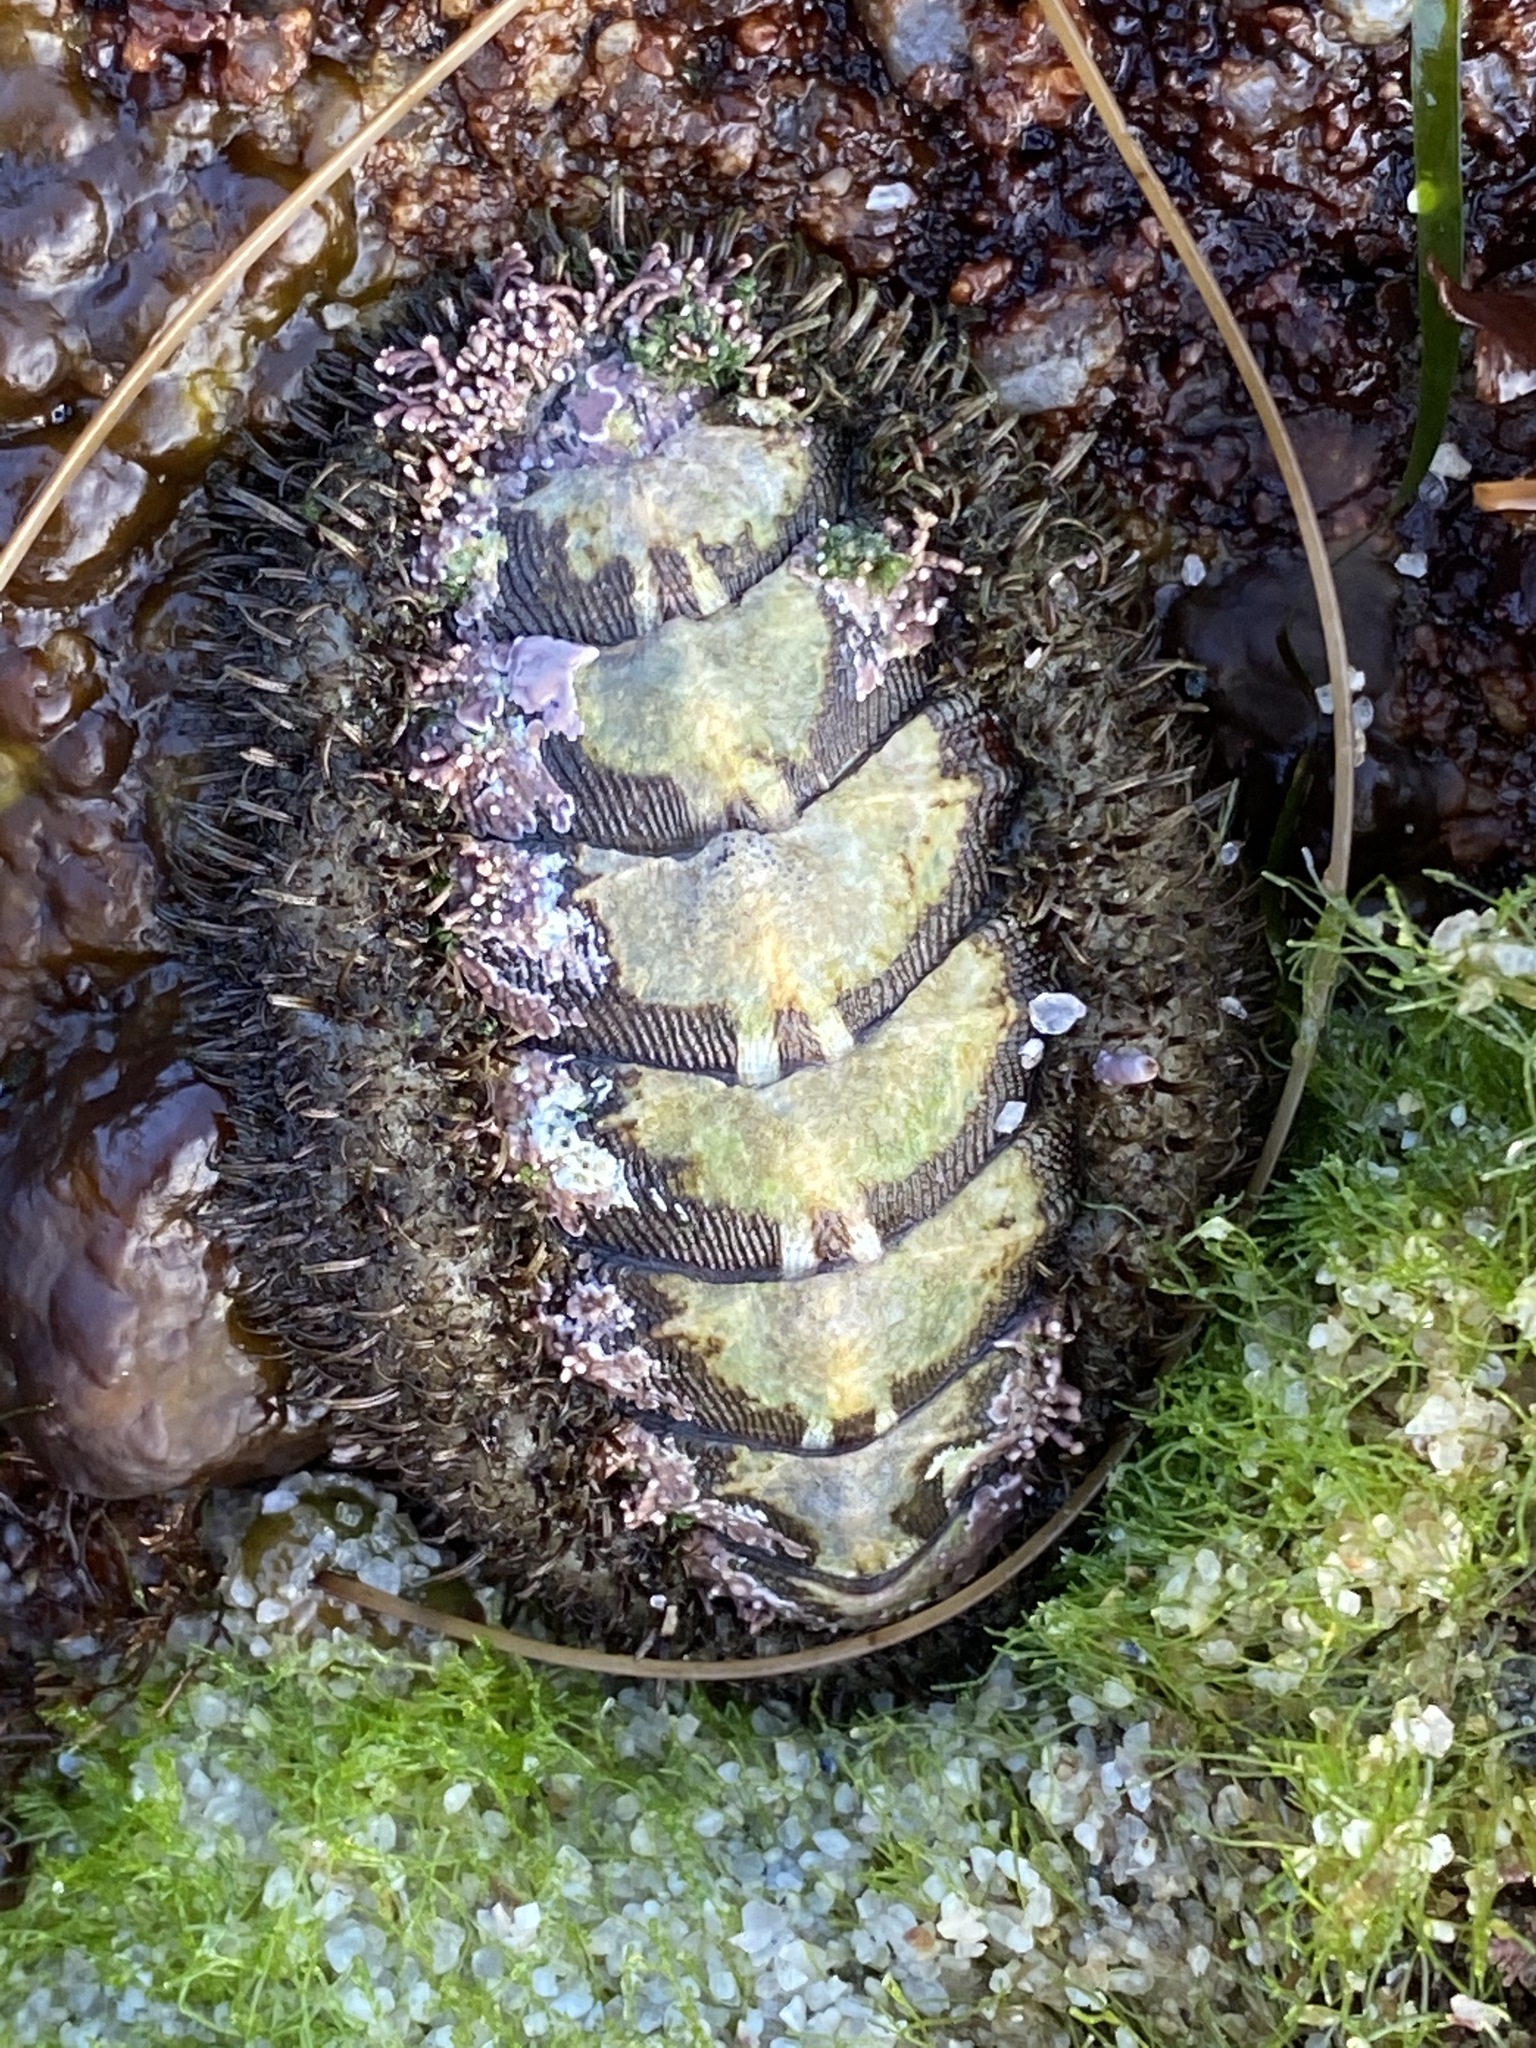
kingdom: Animalia
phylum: Mollusca
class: Polyplacophora
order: Chitonida
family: Mopaliidae
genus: Mopalia
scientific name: Mopalia muscosa
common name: Mossy chiton
